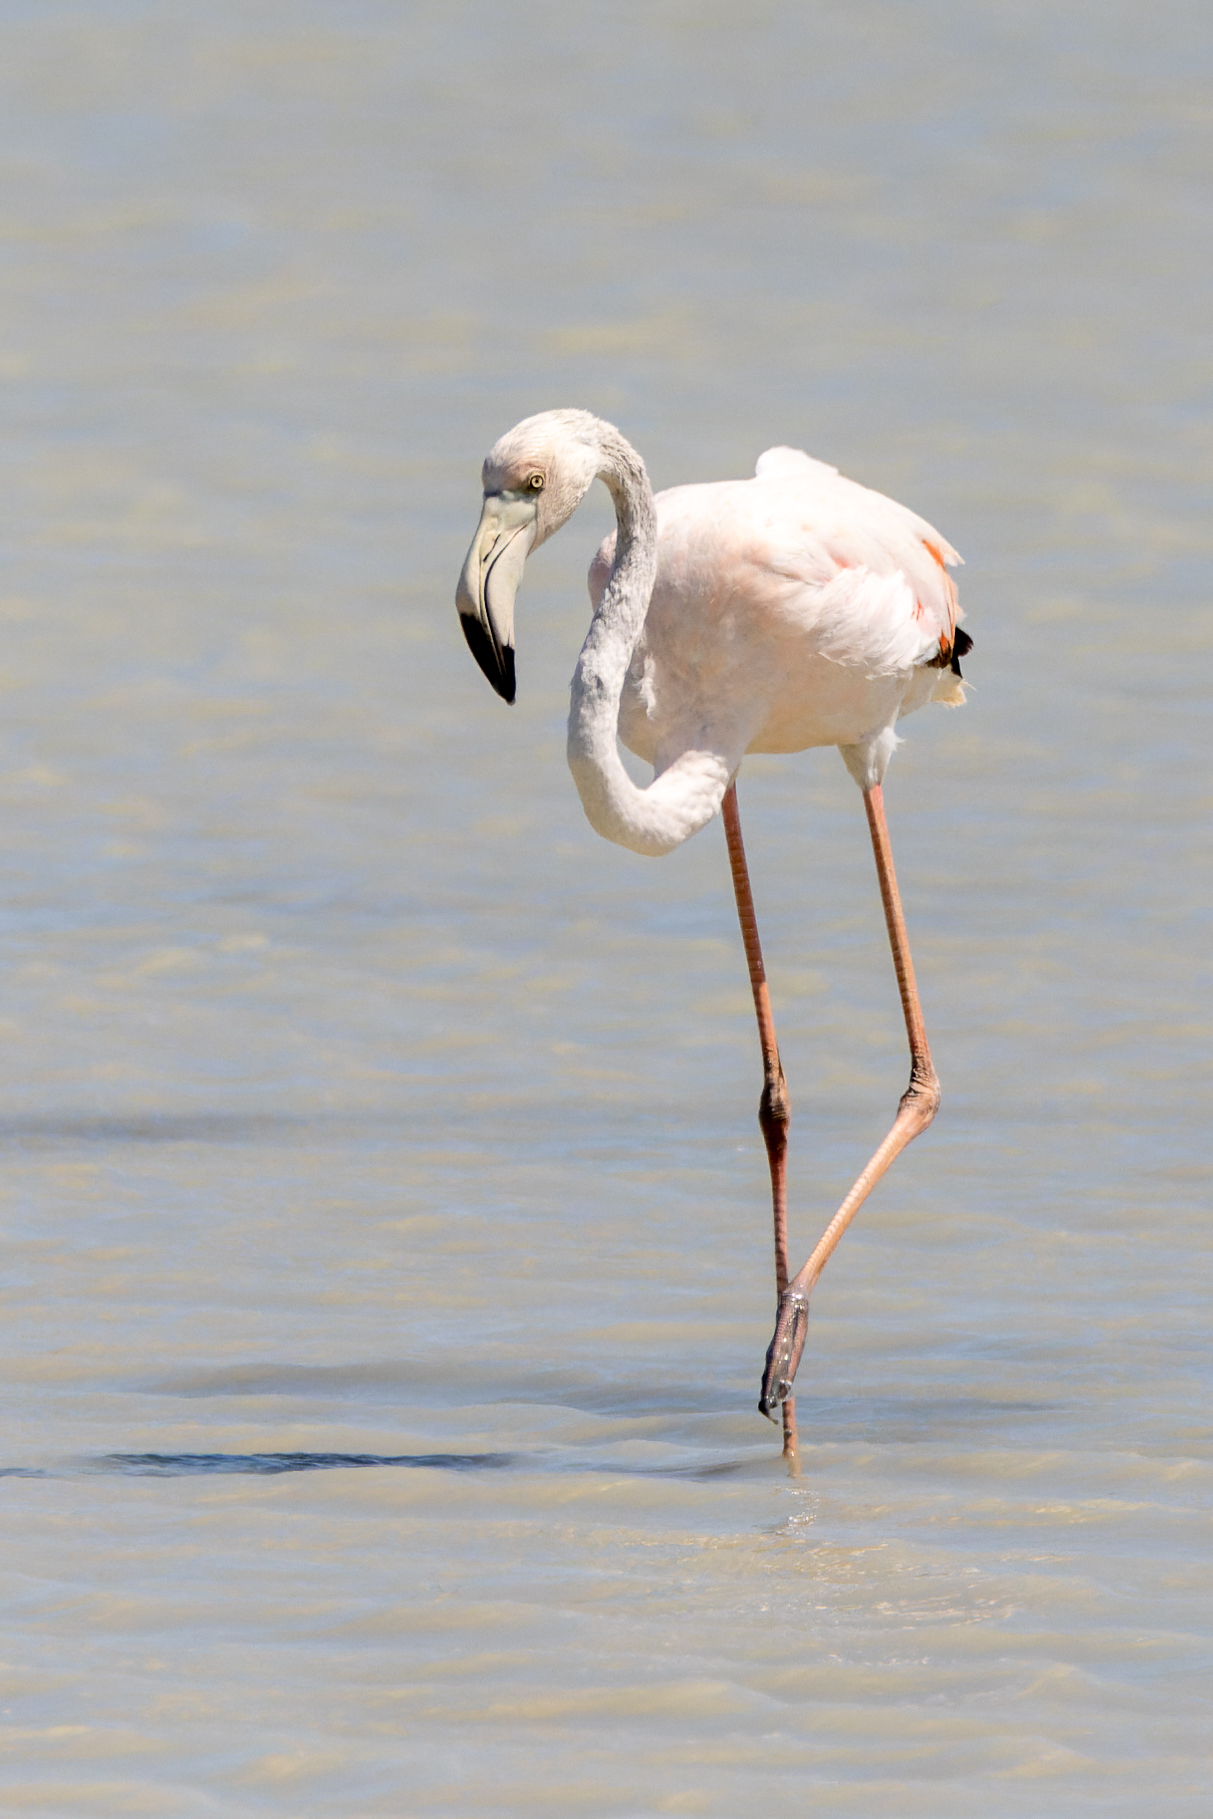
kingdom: Animalia
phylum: Chordata
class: Aves
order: Phoenicopteriformes
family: Phoenicopteridae
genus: Phoenicopterus
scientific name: Phoenicopterus roseus
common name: Greater flamingo
